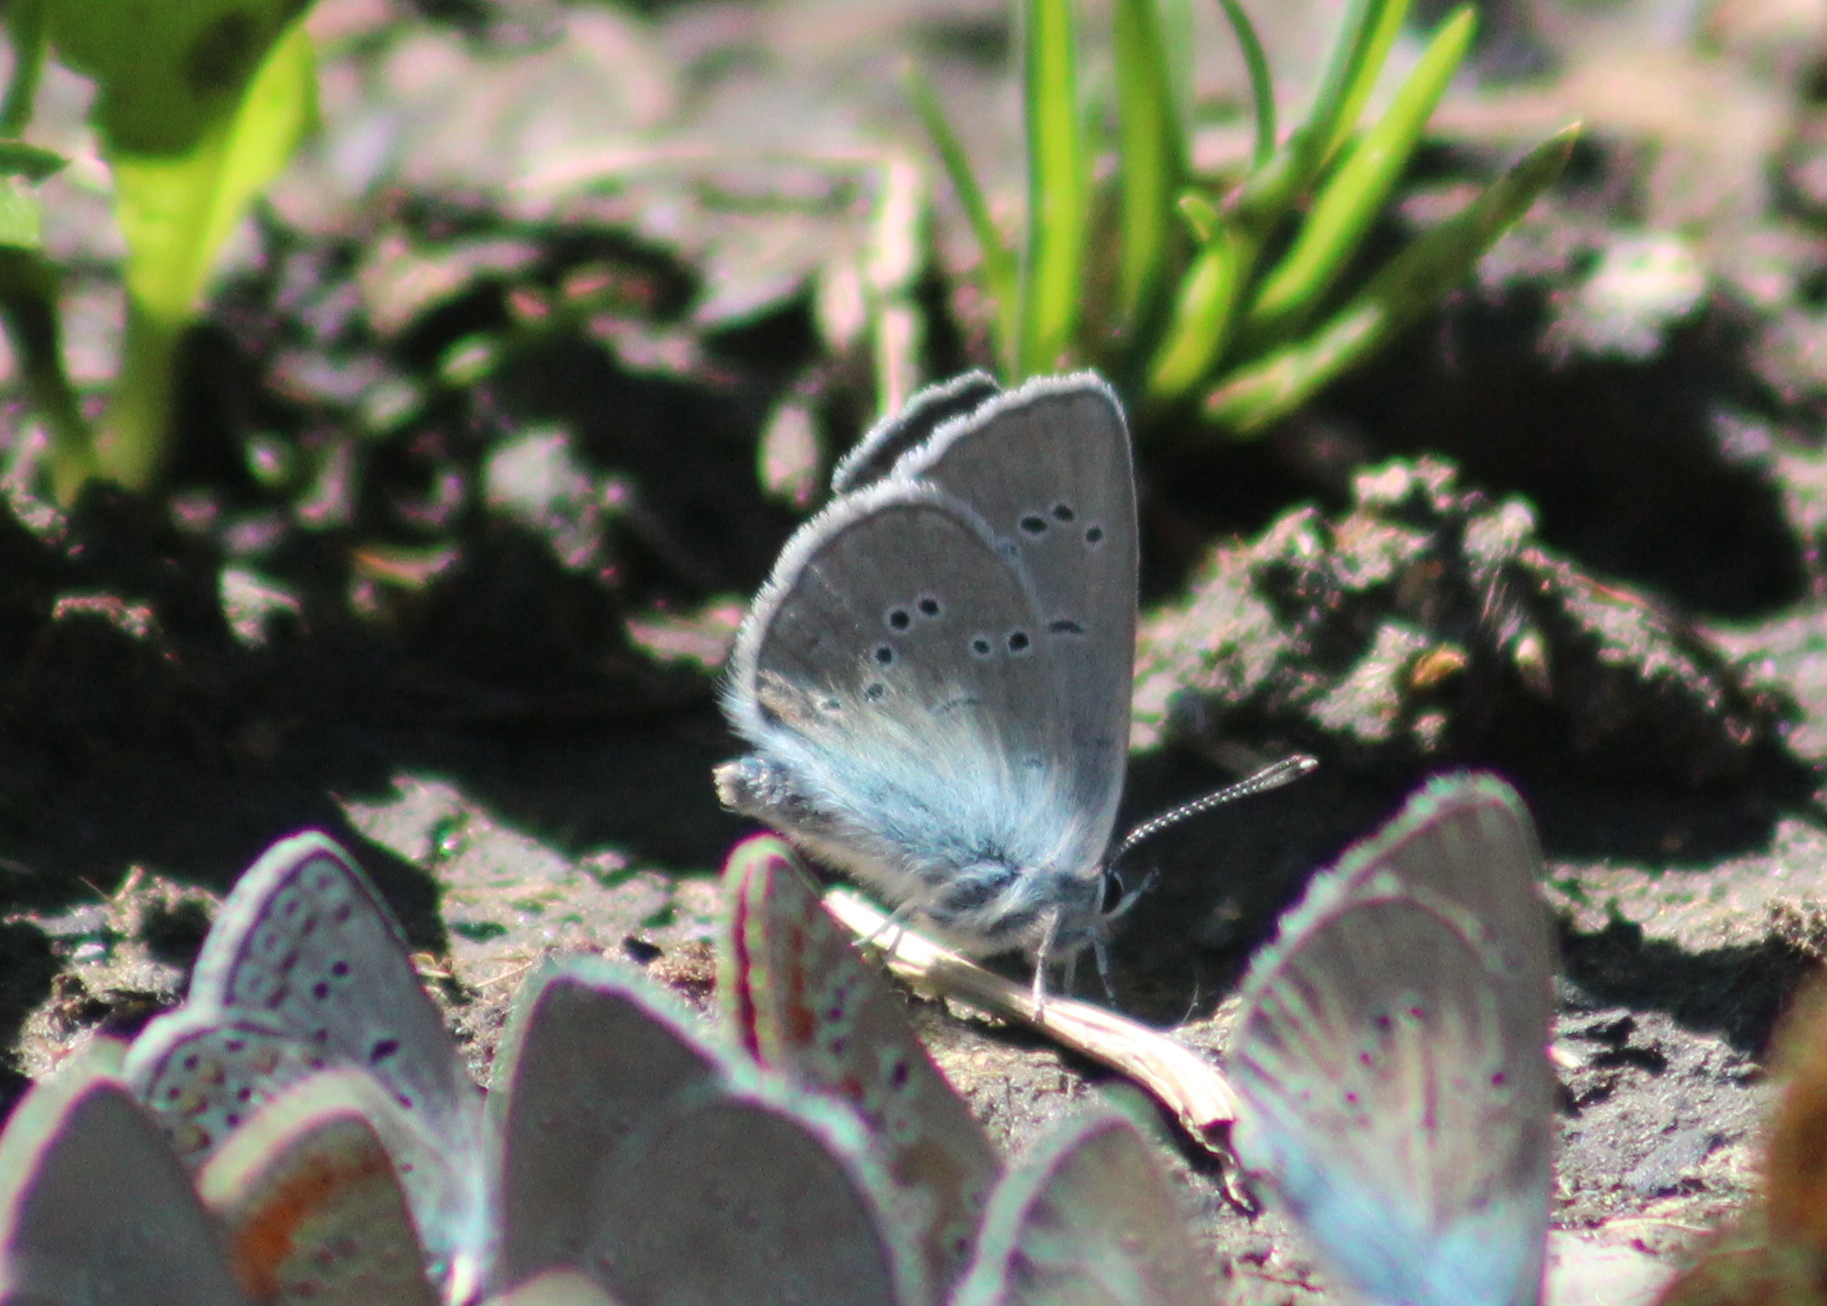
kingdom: Animalia
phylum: Arthropoda
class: Insecta
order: Lepidoptera
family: Lycaenidae
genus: Cyaniris
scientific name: Cyaniris semiargus
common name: Mazarine blue
